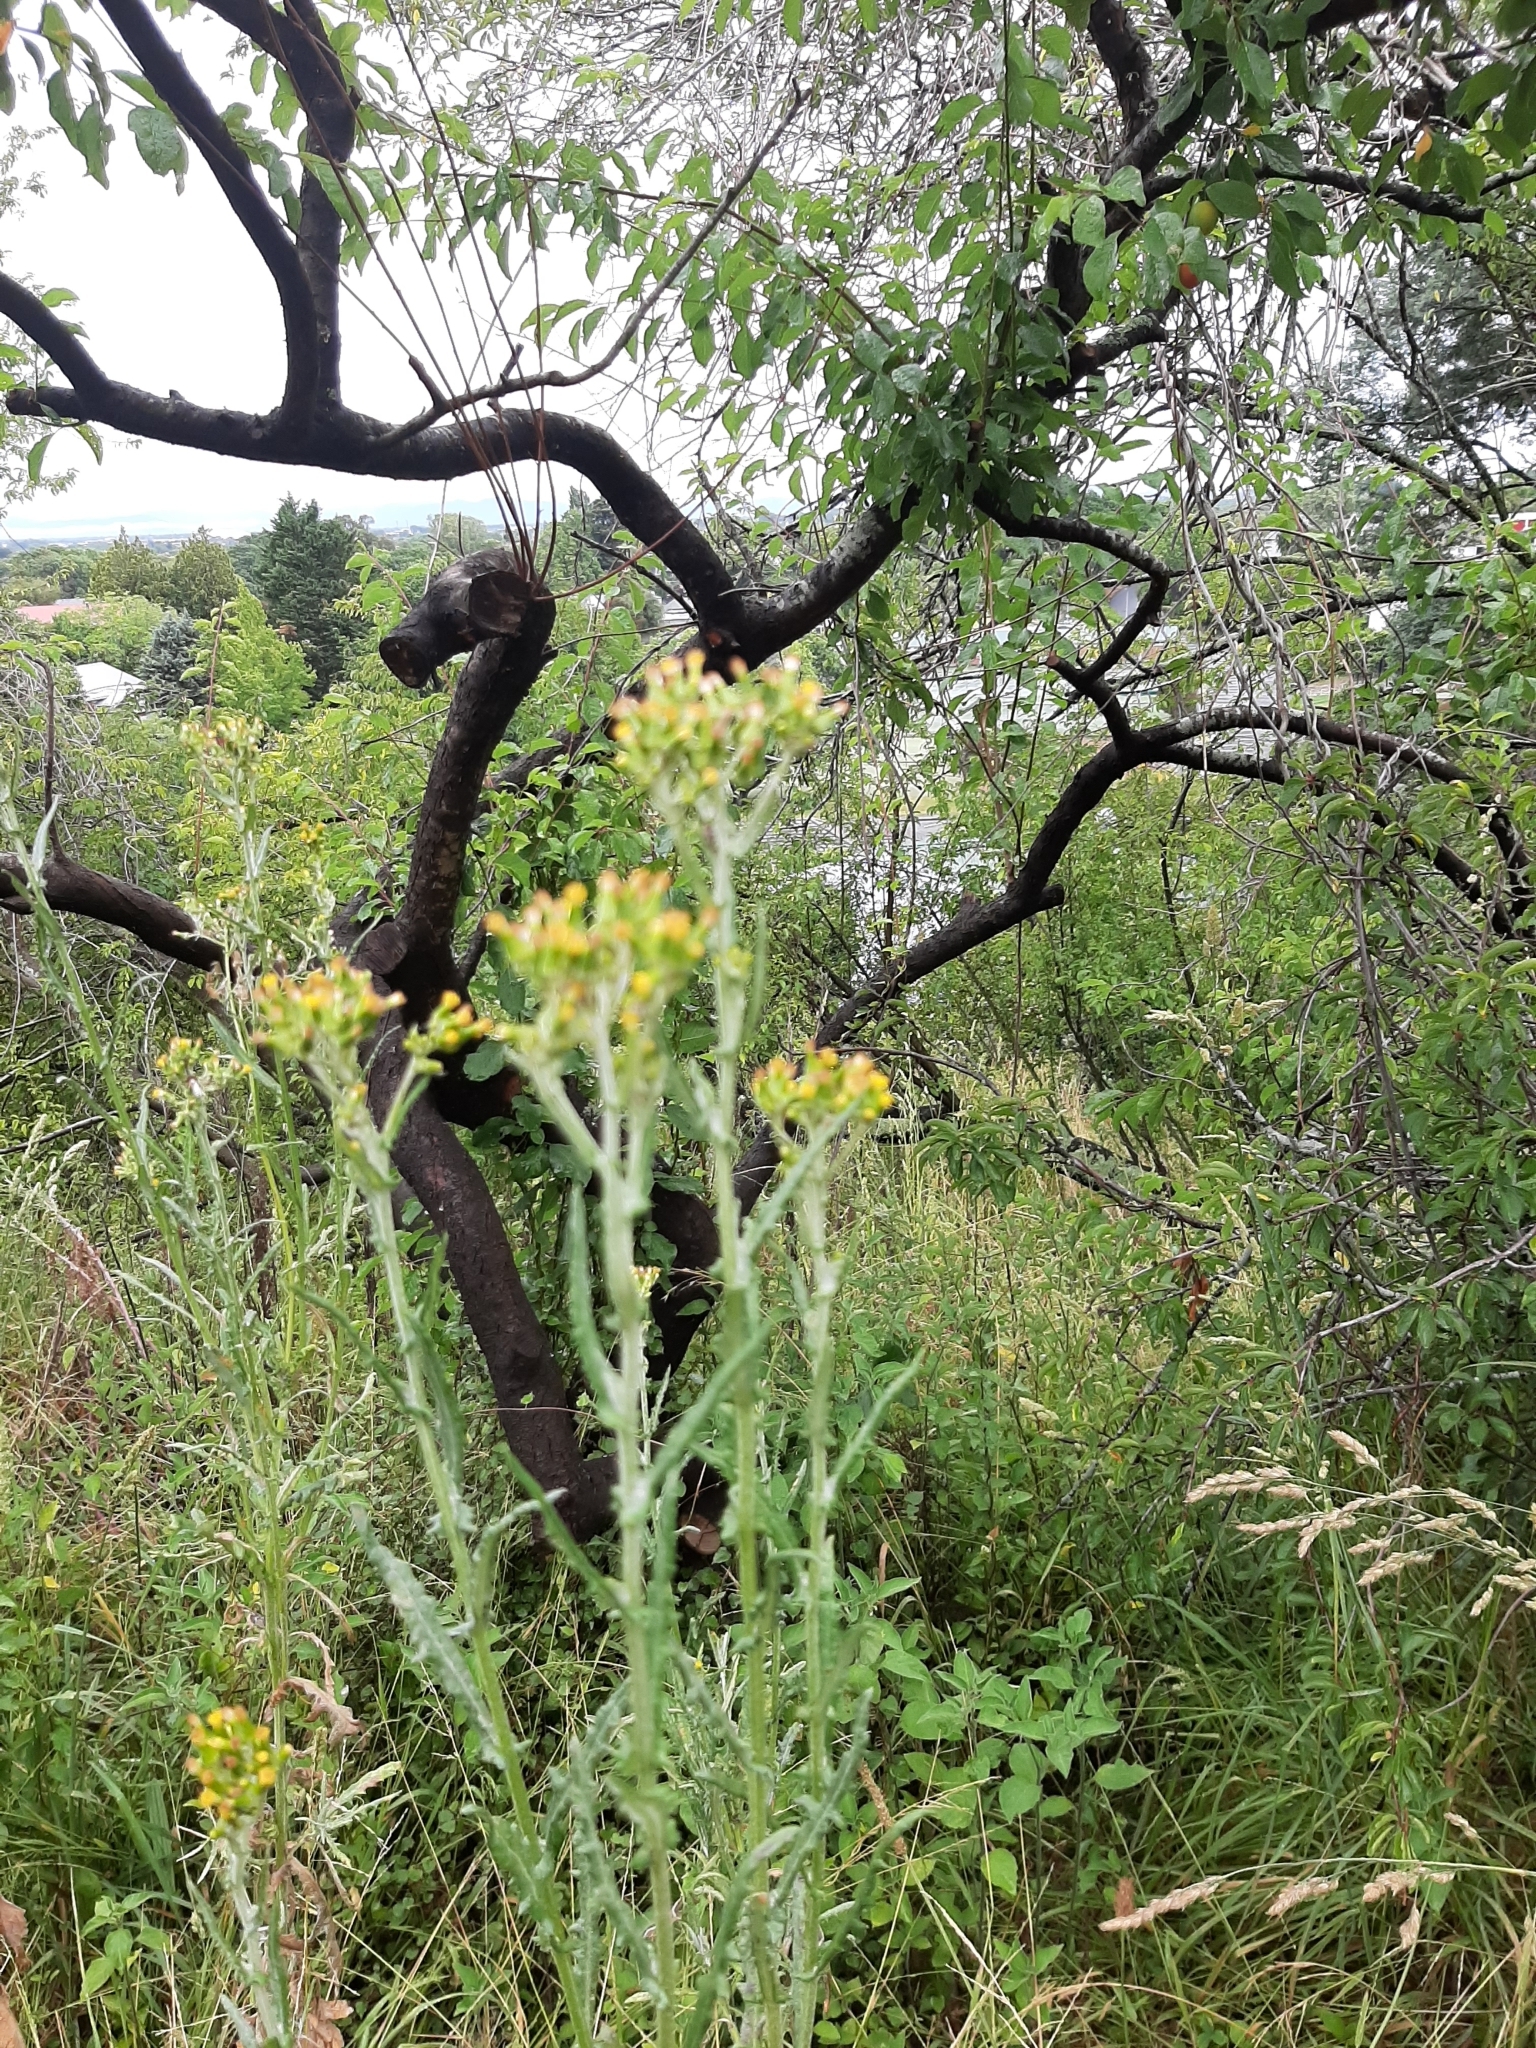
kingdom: Plantae
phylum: Tracheophyta
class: Magnoliopsida
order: Asterales
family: Asteraceae
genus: Senecio
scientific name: Senecio glomeratus
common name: Cutleaf burnweed
